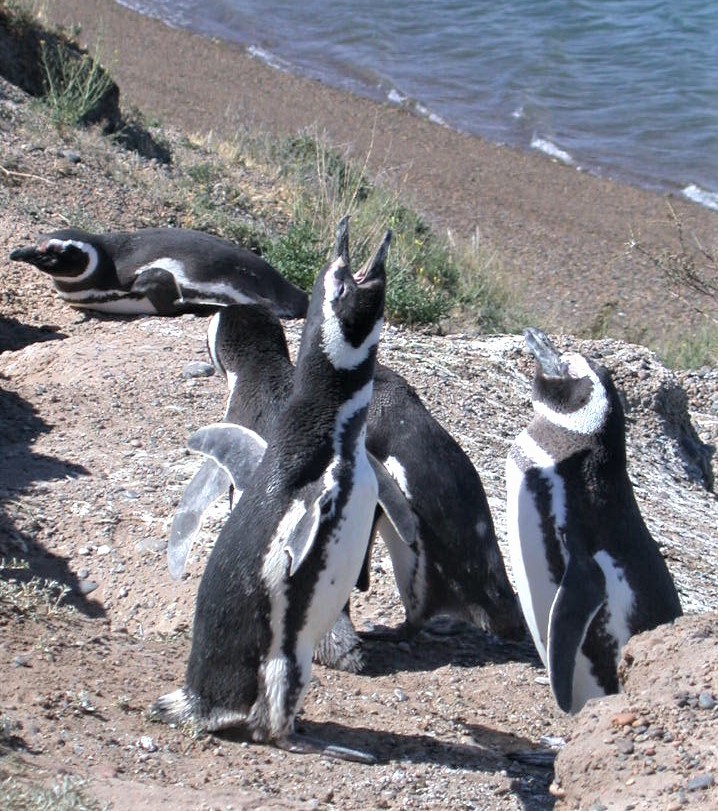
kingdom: Animalia
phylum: Chordata
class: Aves
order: Sphenisciformes
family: Spheniscidae
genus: Spheniscus
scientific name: Spheniscus magellanicus
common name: Magellanic penguin
